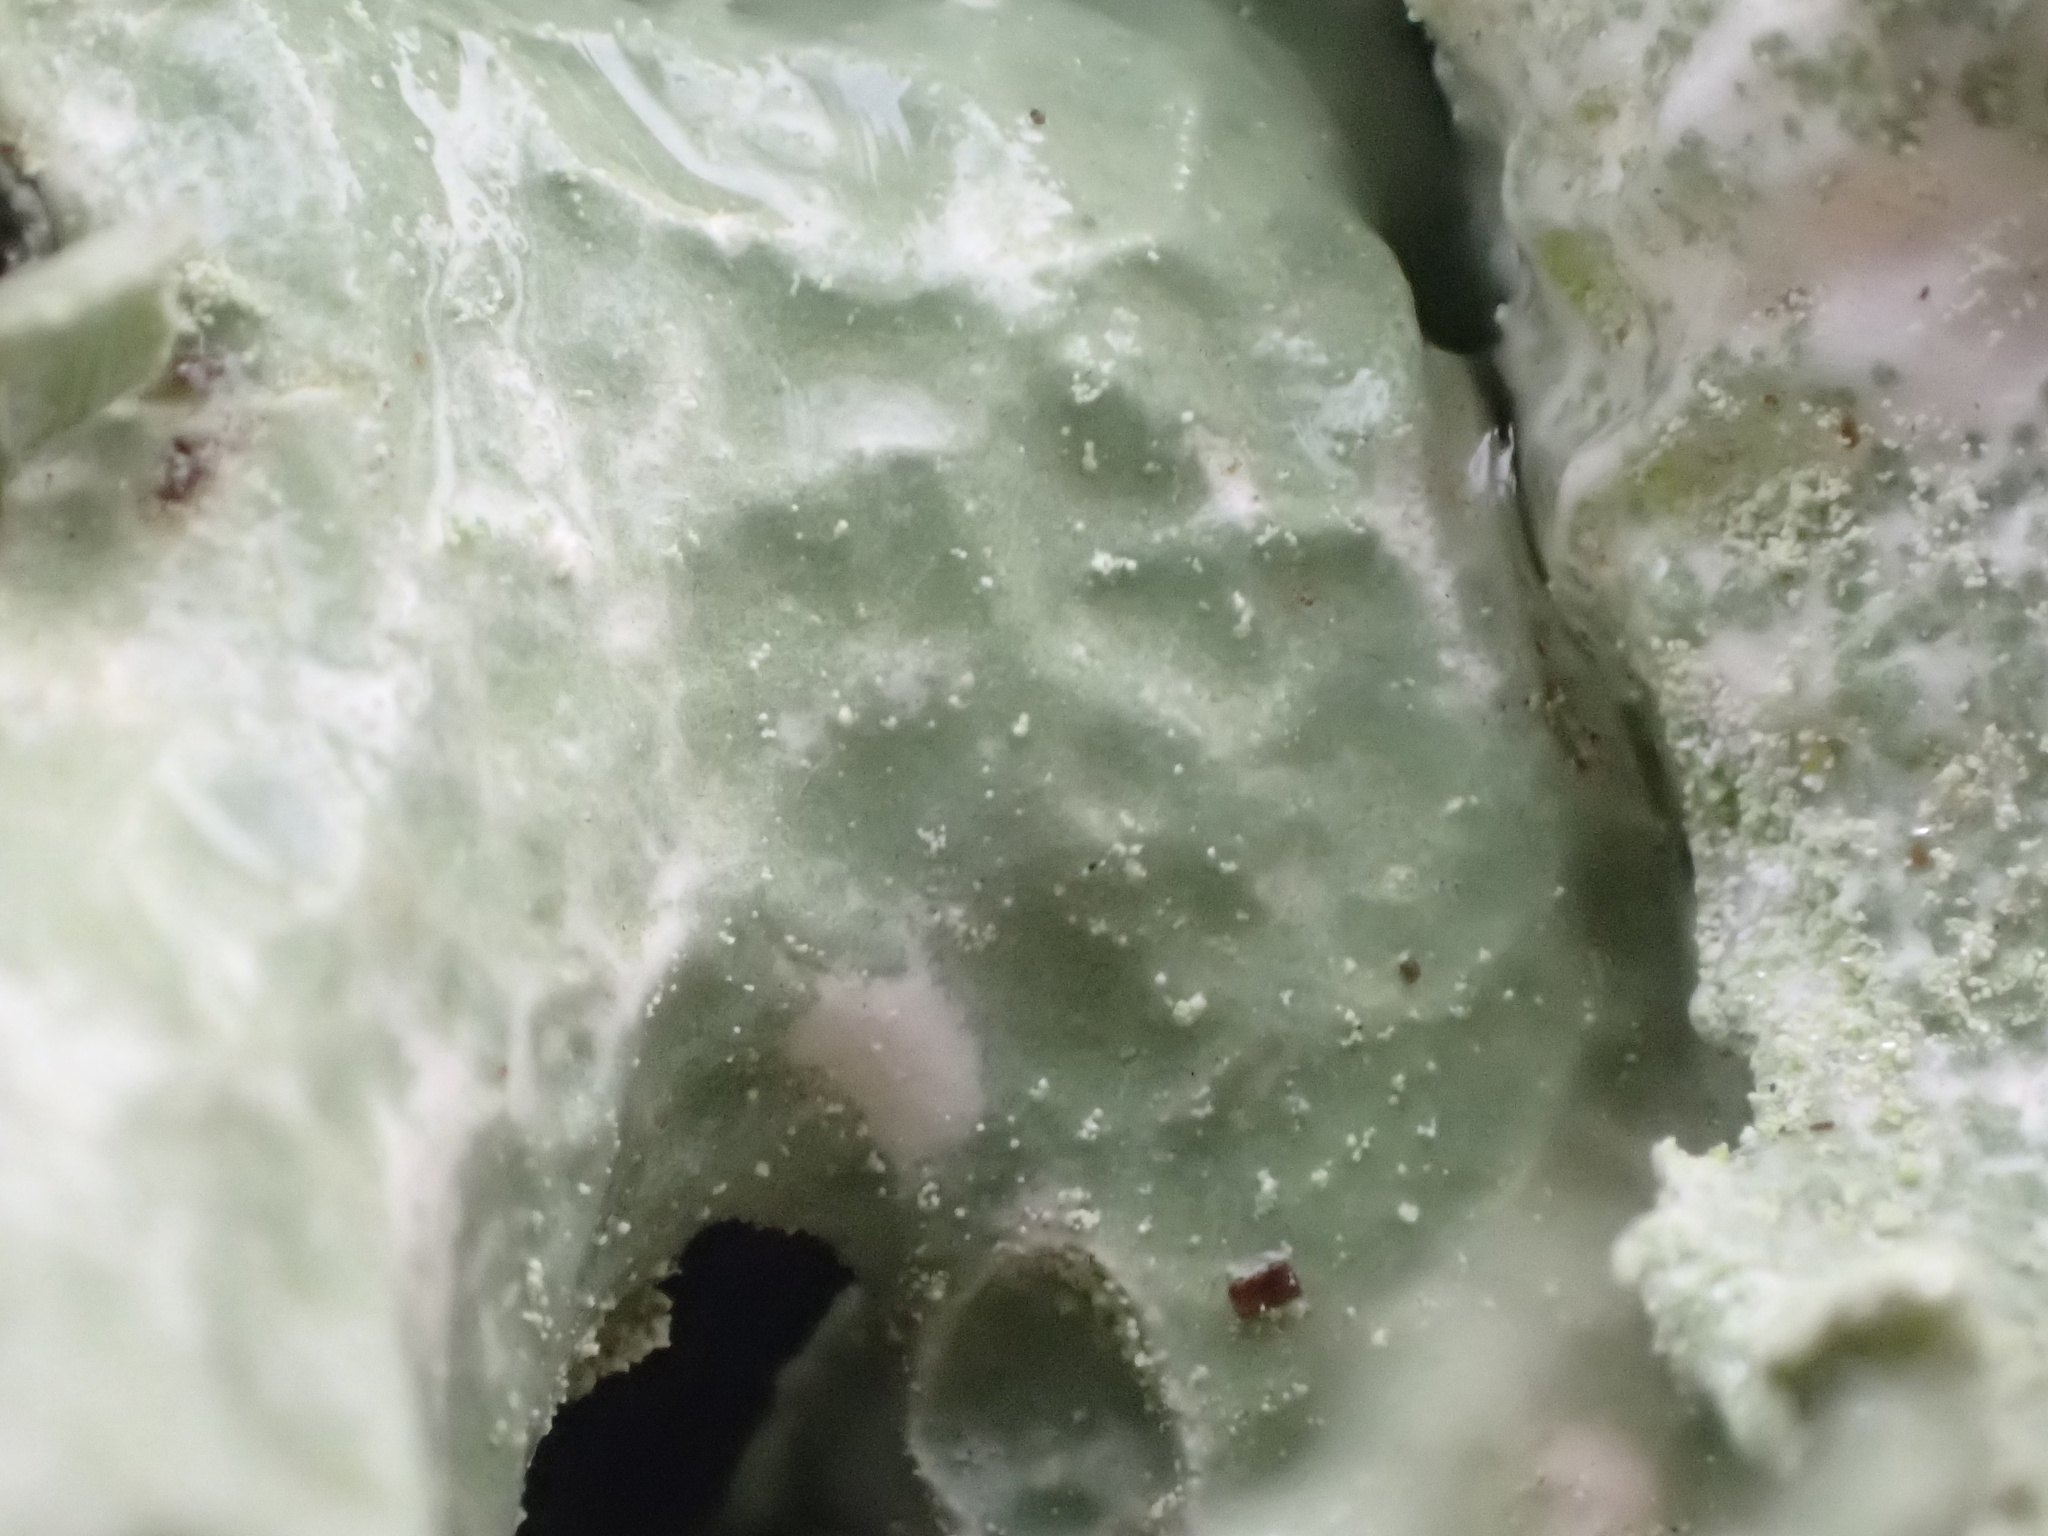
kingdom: Fungi
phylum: Ascomycota
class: Lecanoromycetes
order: Lecanorales
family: Ramalinaceae
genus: Ramalina
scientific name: Ramalina lacera
